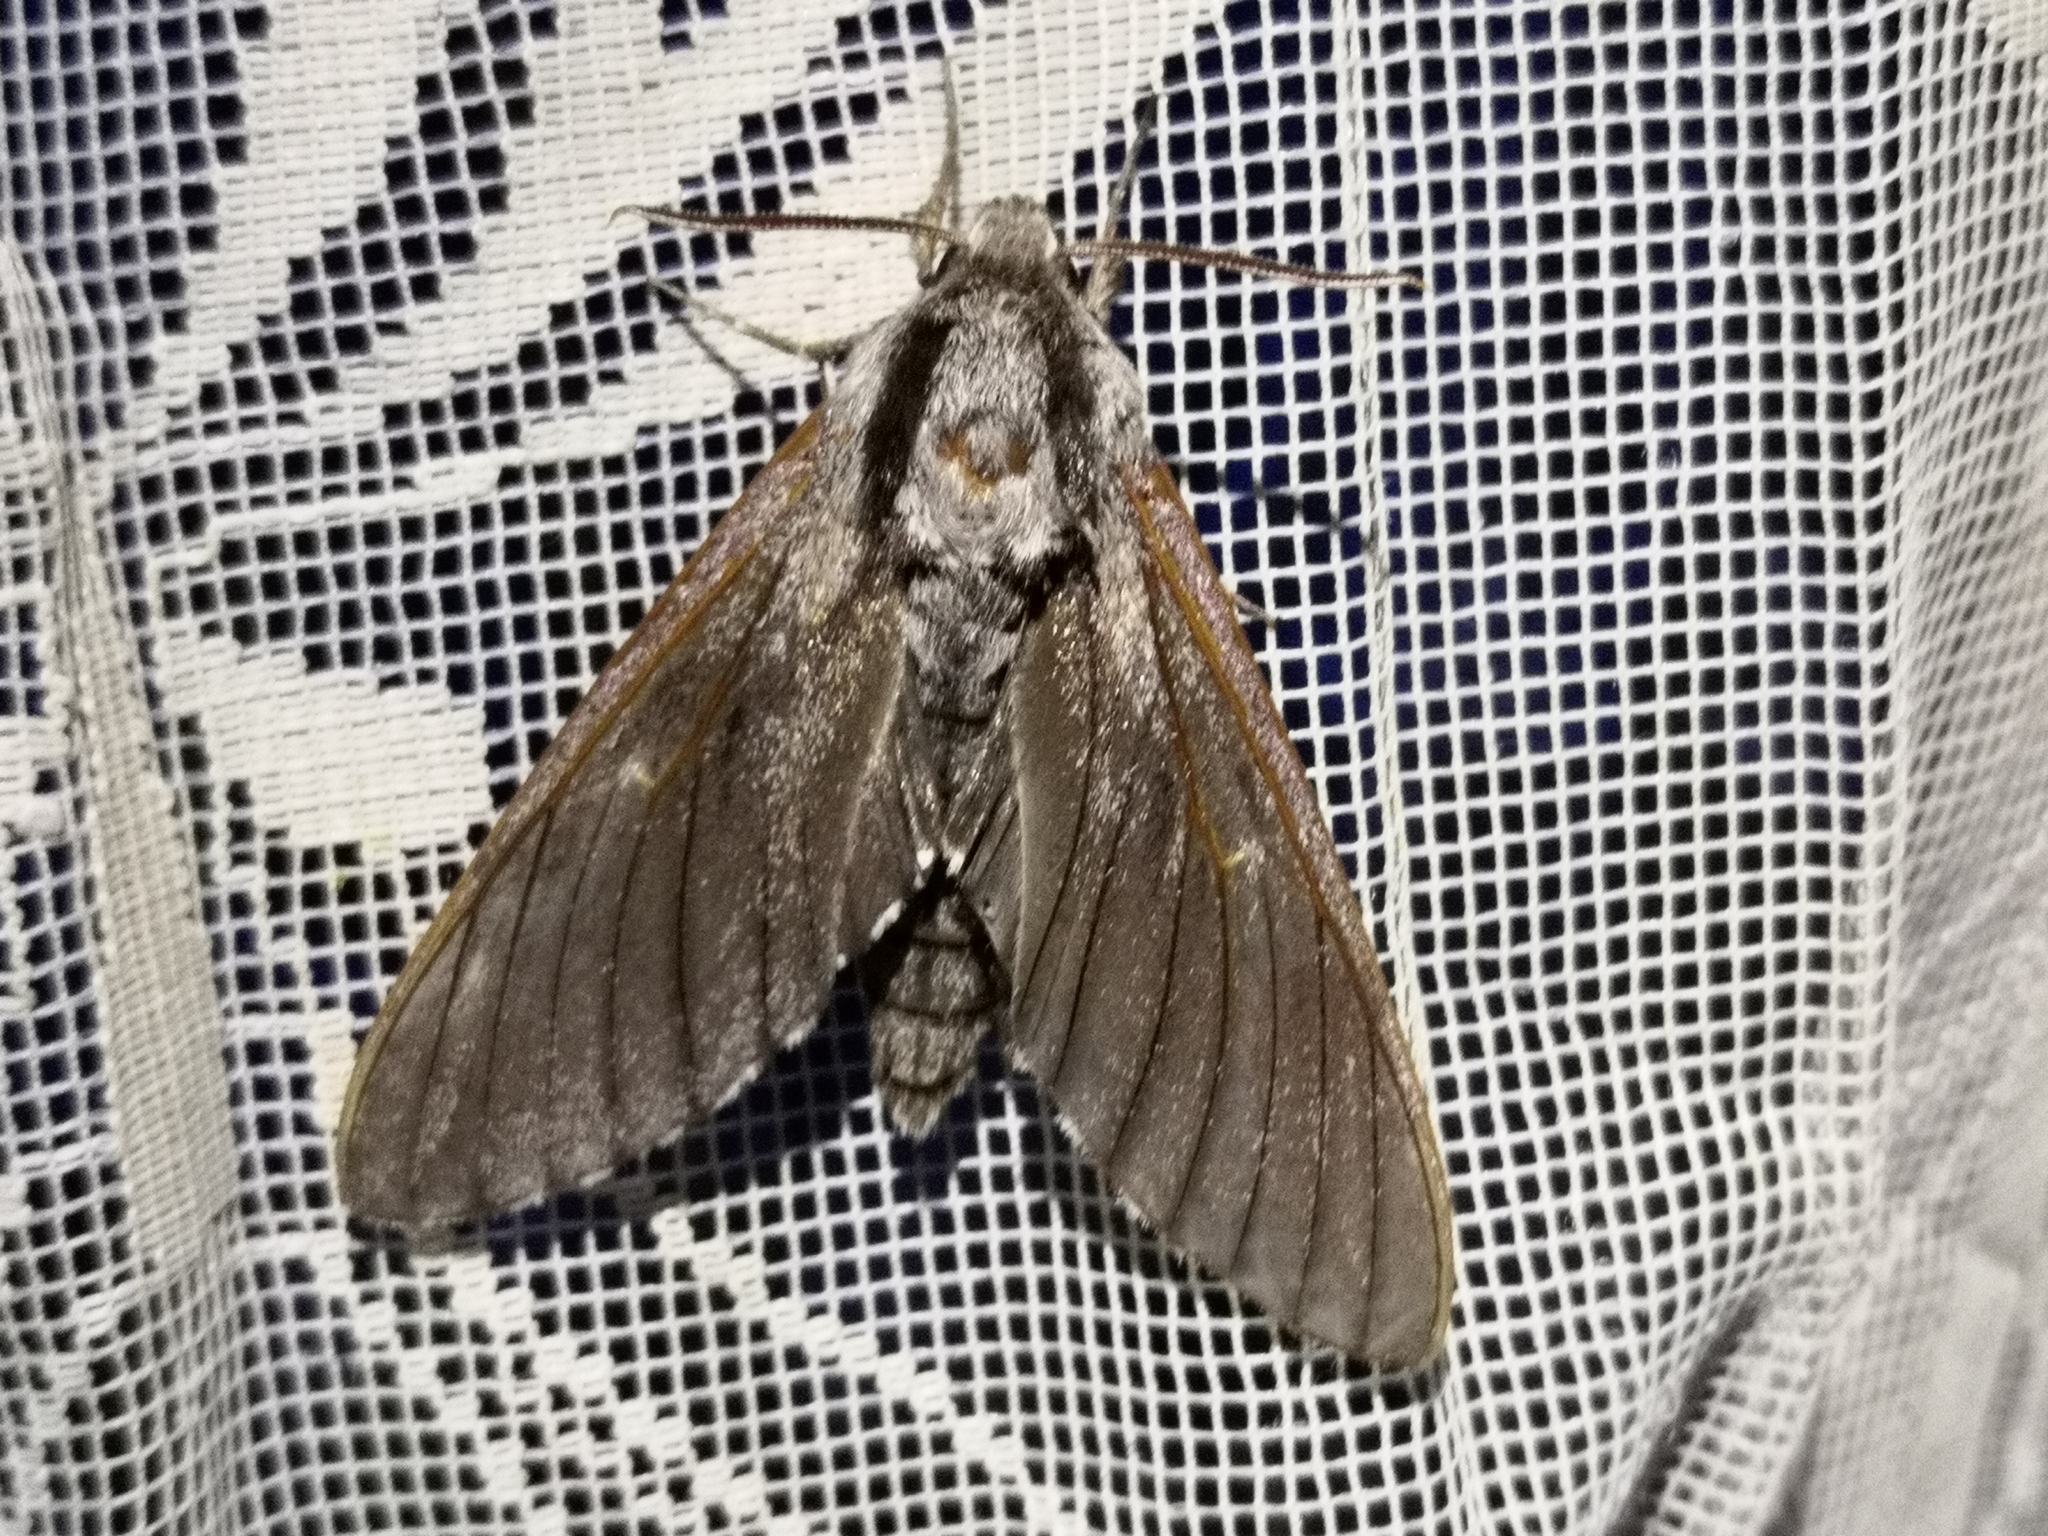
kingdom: Animalia
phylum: Arthropoda
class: Insecta
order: Lepidoptera
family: Sphingidae
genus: Sphinx
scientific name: Sphinx pinastri
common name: Pine hawk-moth
